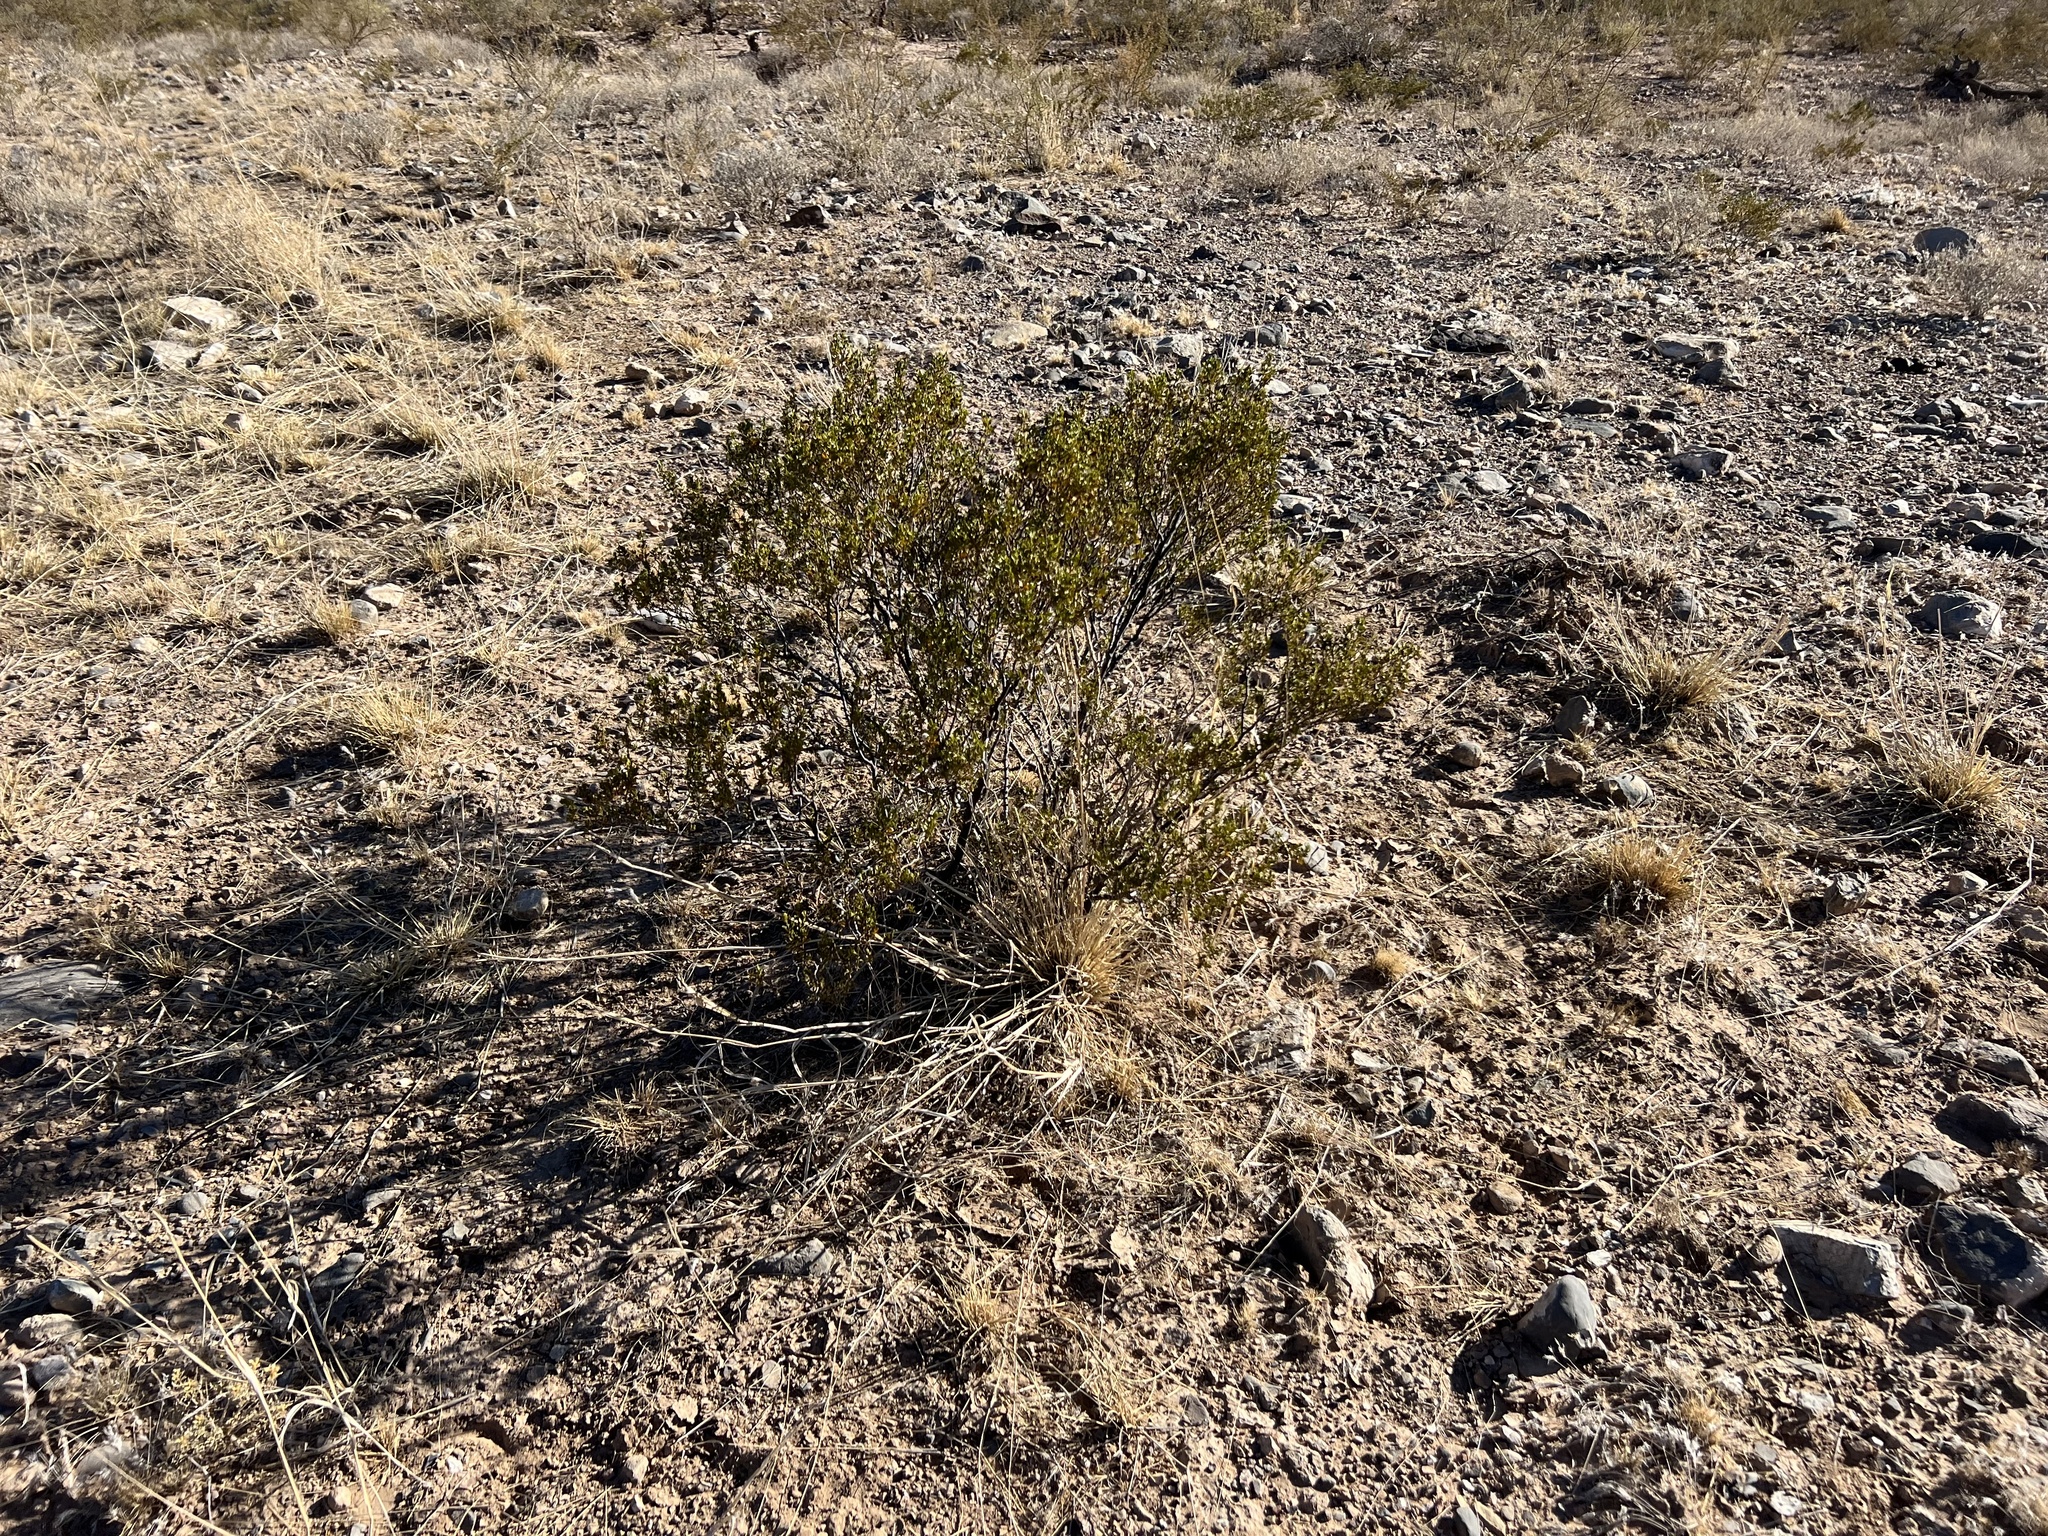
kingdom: Plantae
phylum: Tracheophyta
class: Magnoliopsida
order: Zygophyllales
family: Zygophyllaceae
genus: Larrea
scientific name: Larrea tridentata
